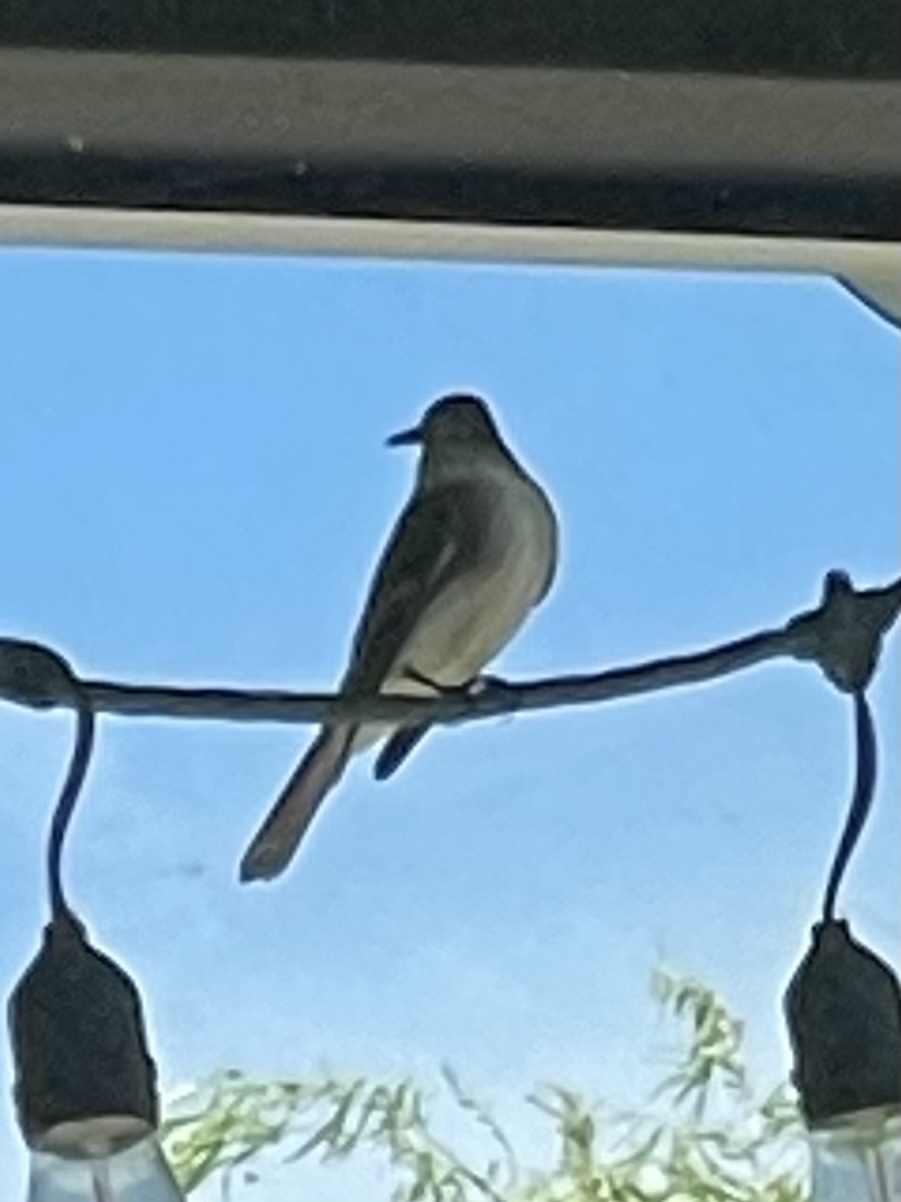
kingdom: Animalia
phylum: Chordata
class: Aves
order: Passeriformes
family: Tyrannidae
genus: Sayornis
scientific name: Sayornis phoebe
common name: Eastern phoebe
